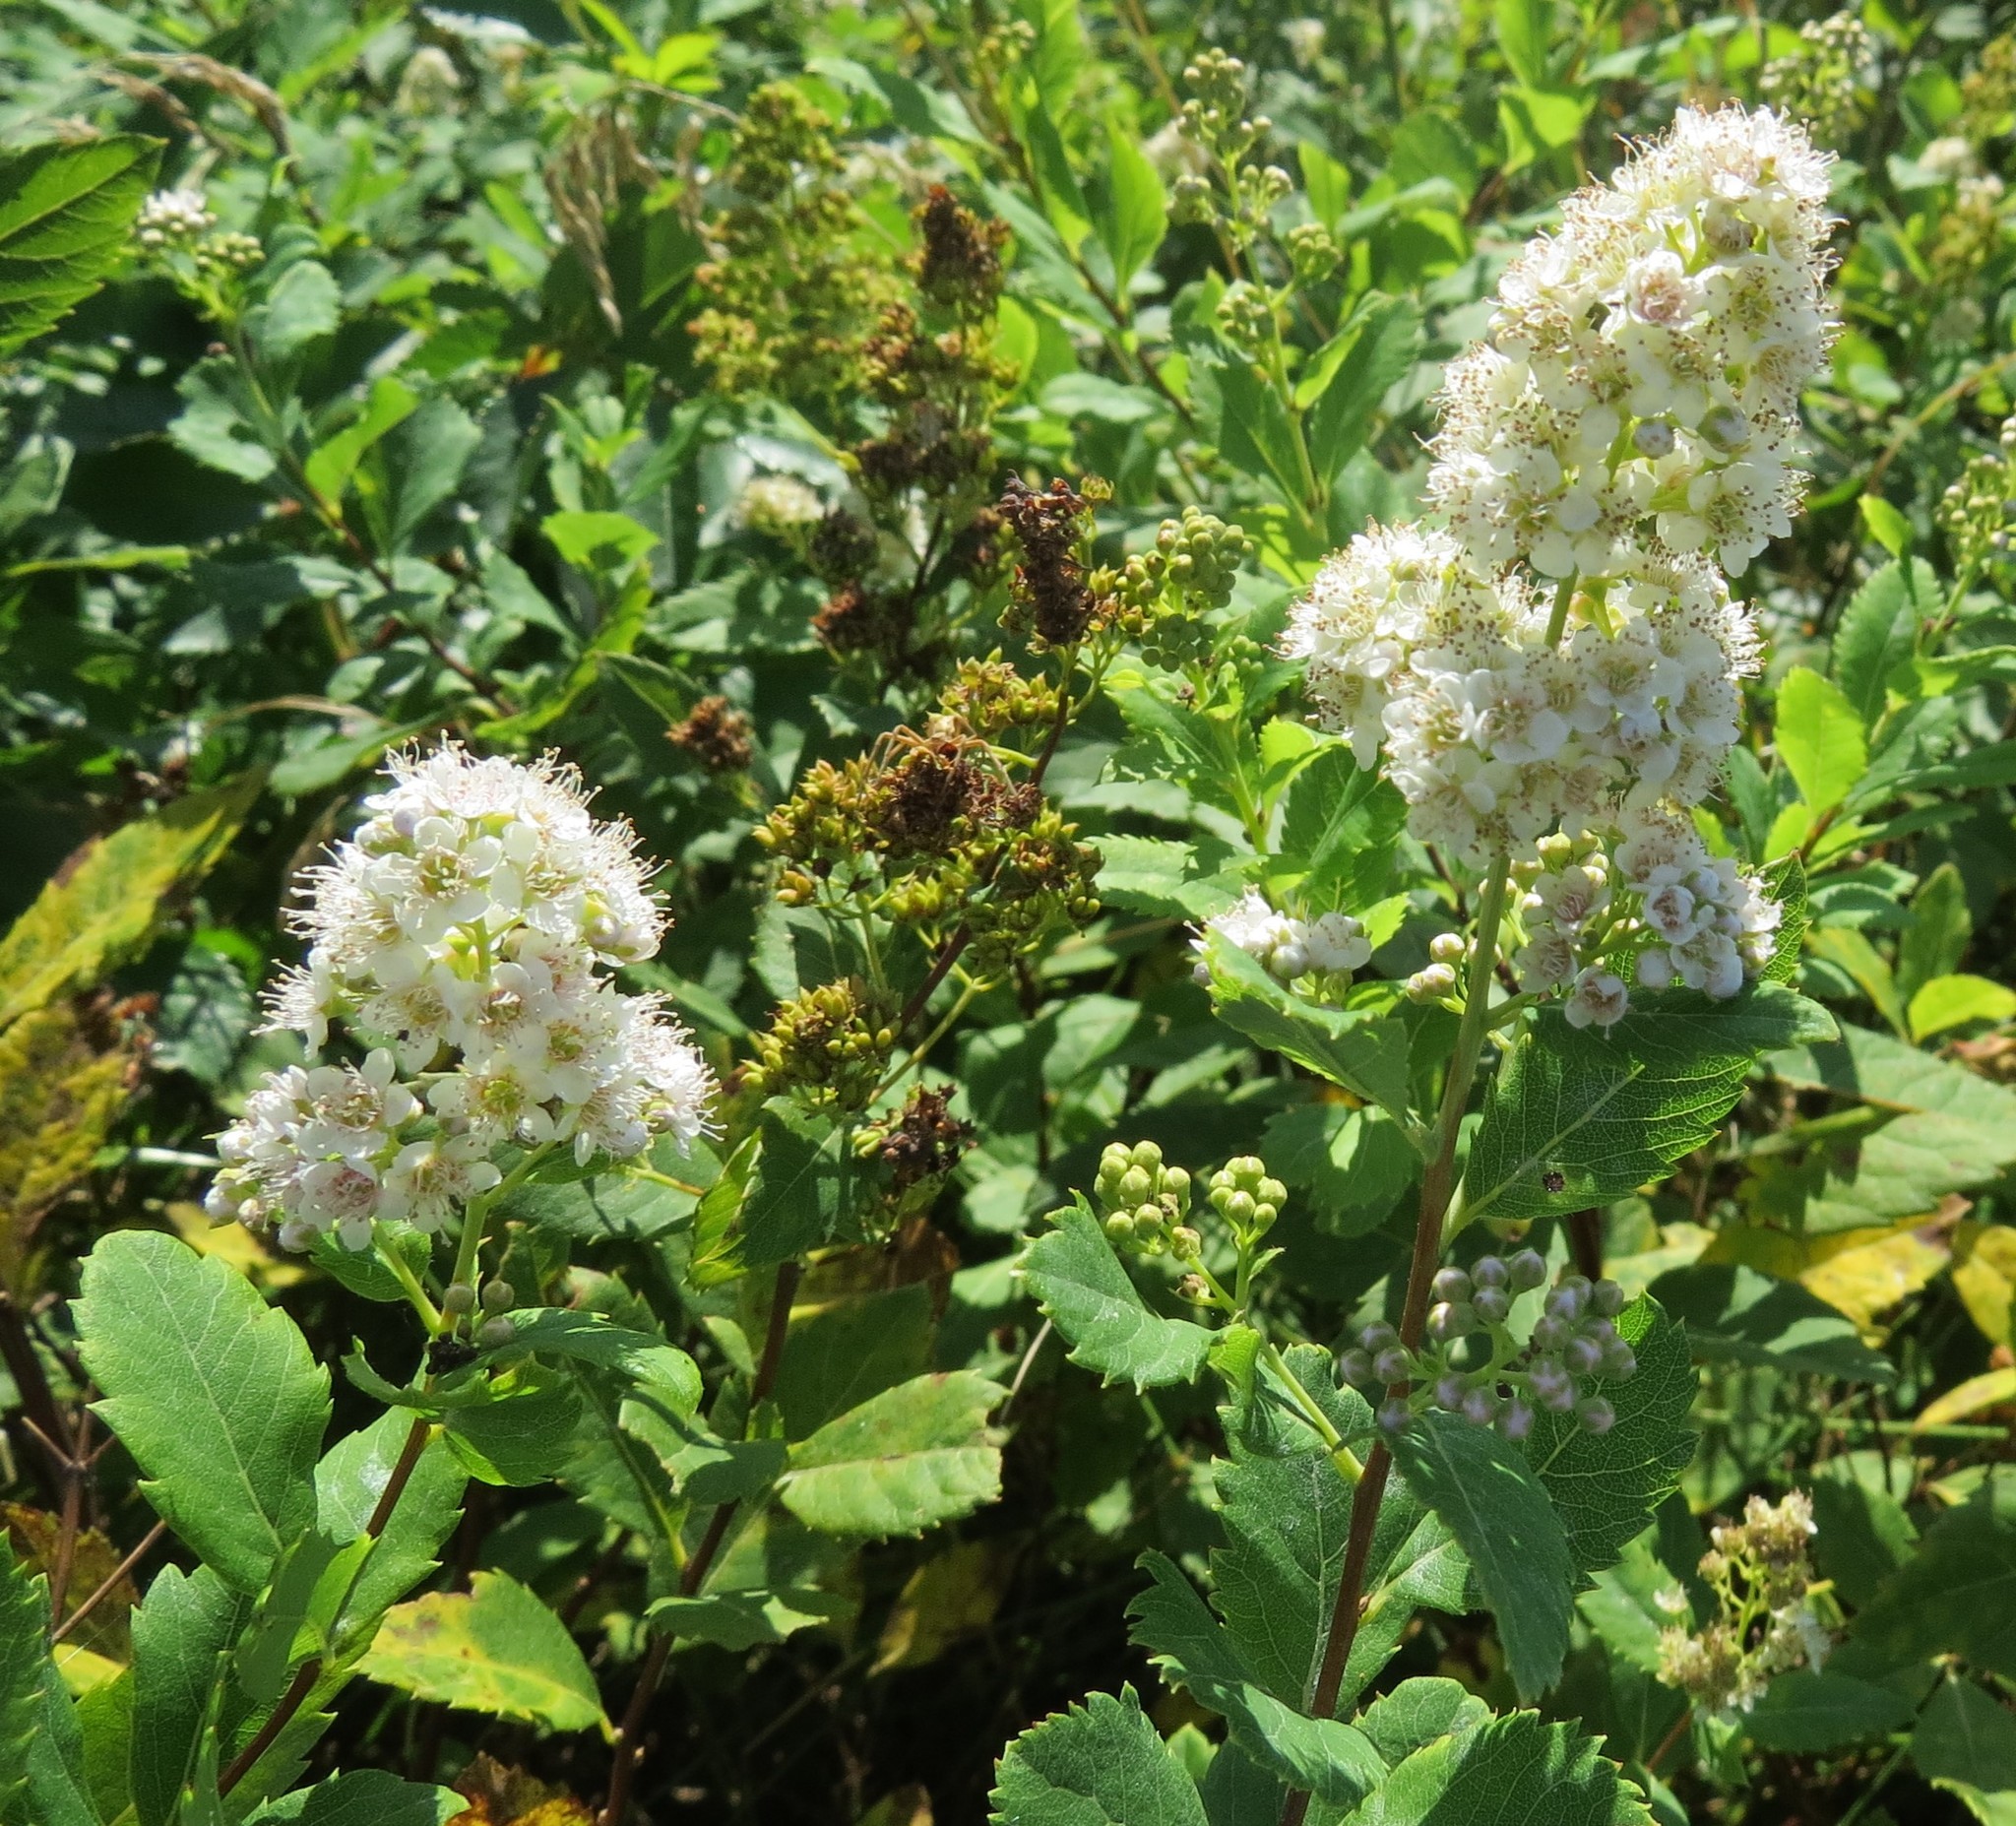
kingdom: Plantae
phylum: Tracheophyta
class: Magnoliopsida
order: Rosales
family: Rosaceae
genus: Spiraea
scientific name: Spiraea alba
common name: Pale bridewort
